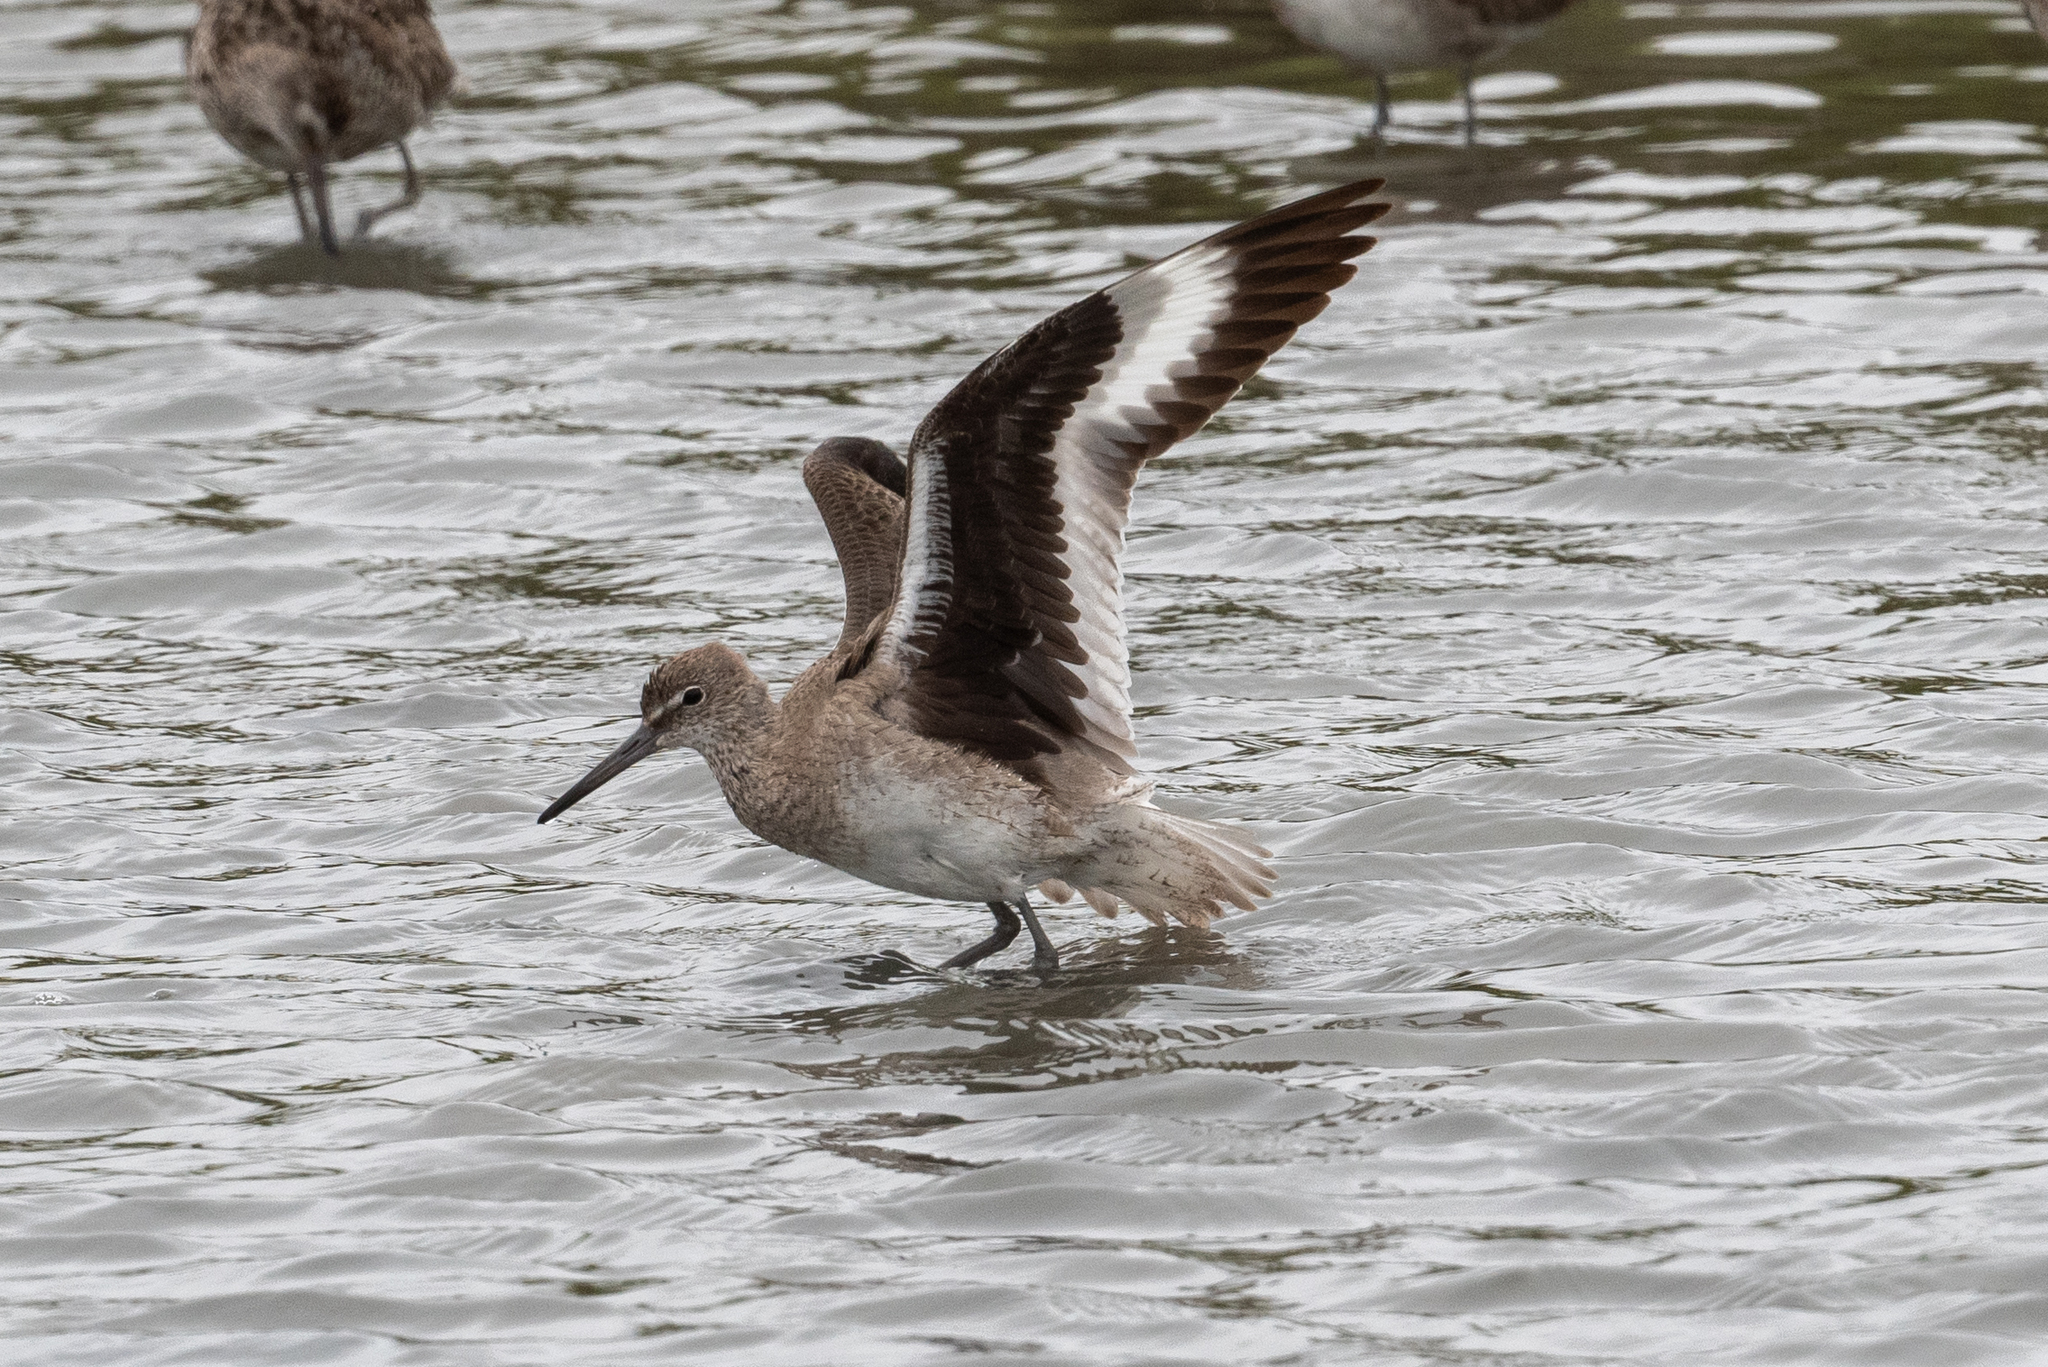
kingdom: Animalia
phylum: Chordata
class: Aves
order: Charadriiformes
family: Scolopacidae
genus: Tringa
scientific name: Tringa semipalmata
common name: Willet
